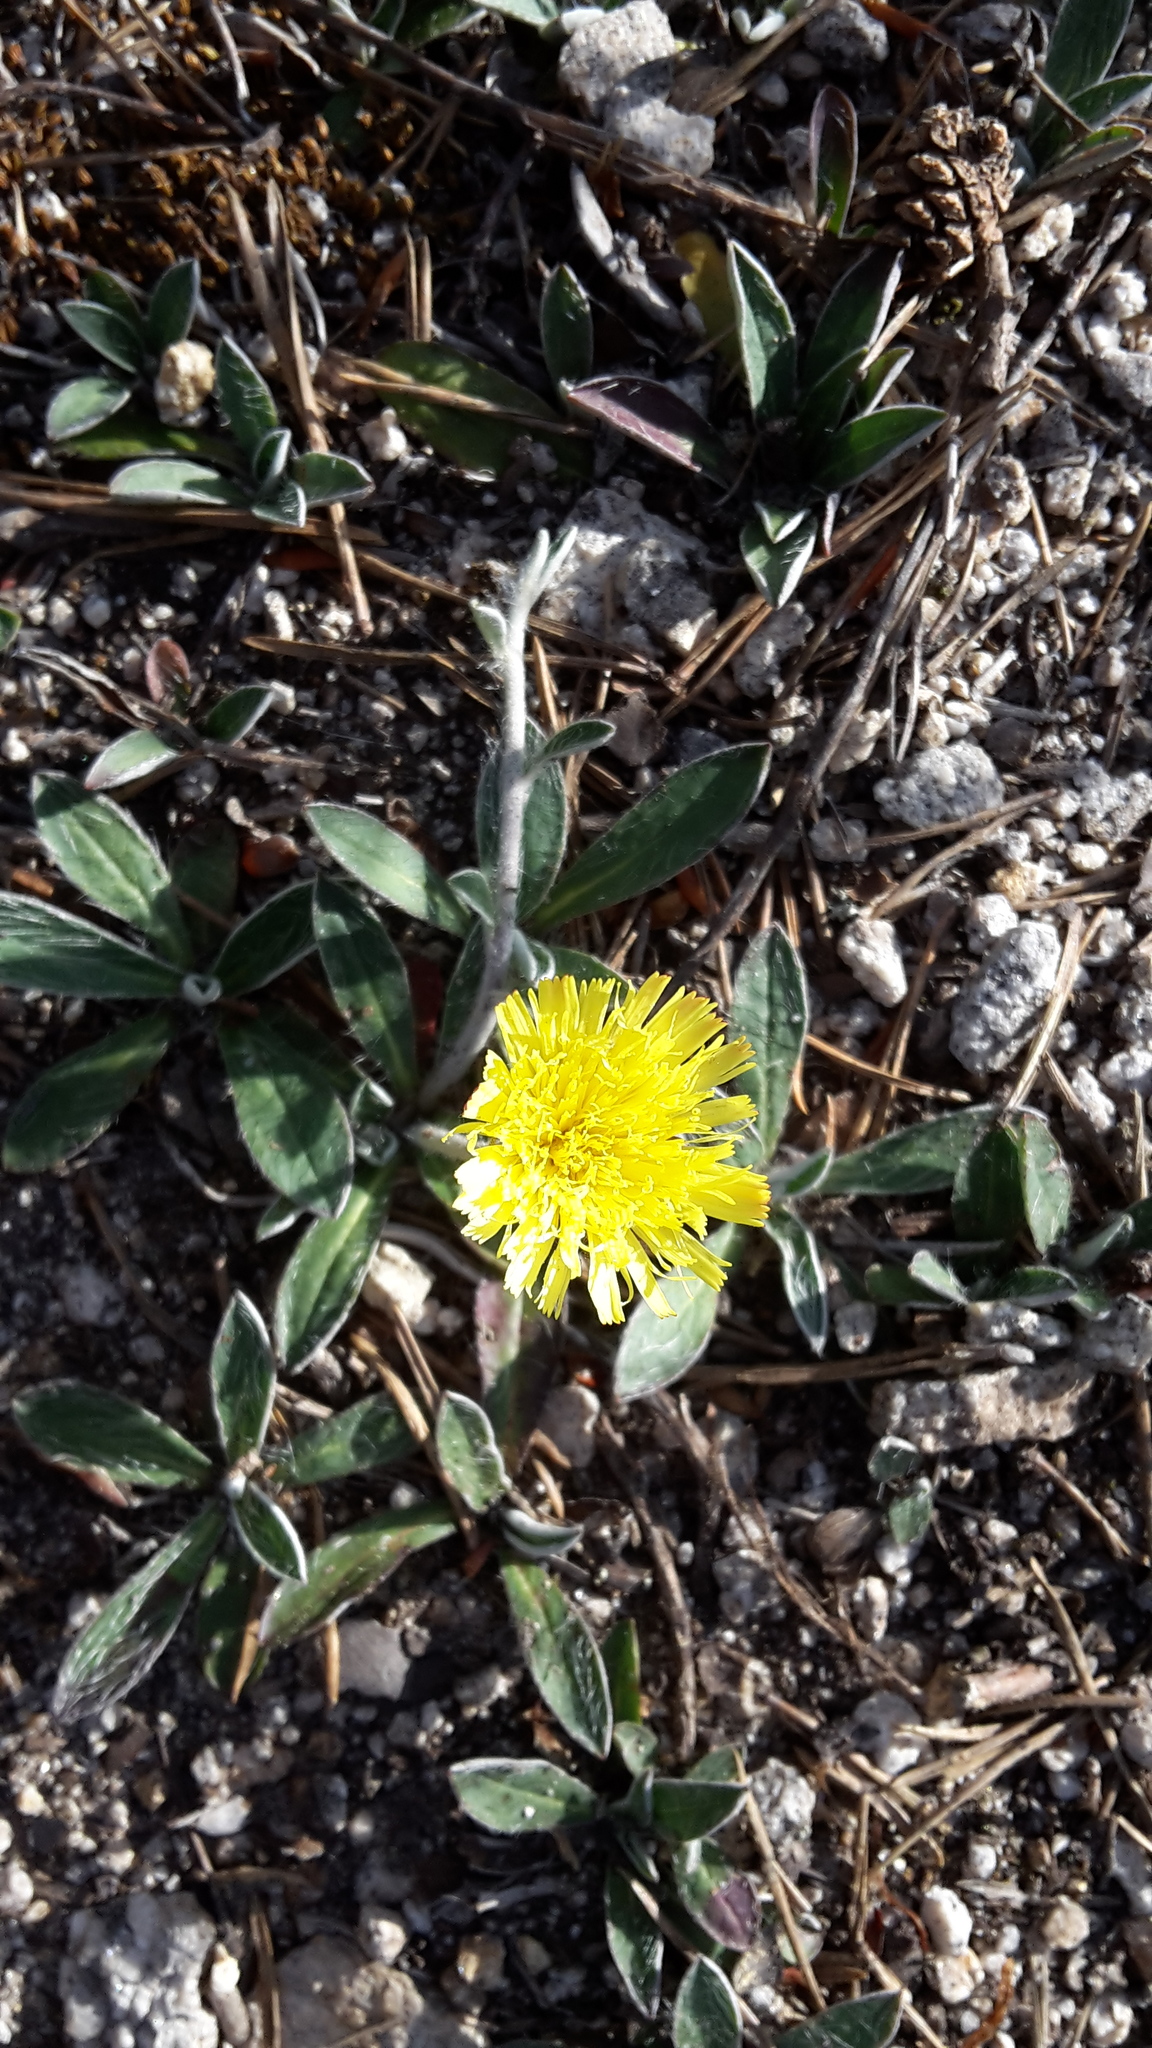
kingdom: Plantae
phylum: Tracheophyta
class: Magnoliopsida
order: Asterales
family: Asteraceae
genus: Pilosella
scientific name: Pilosella officinarum
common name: Mouse-ear hawkweed
